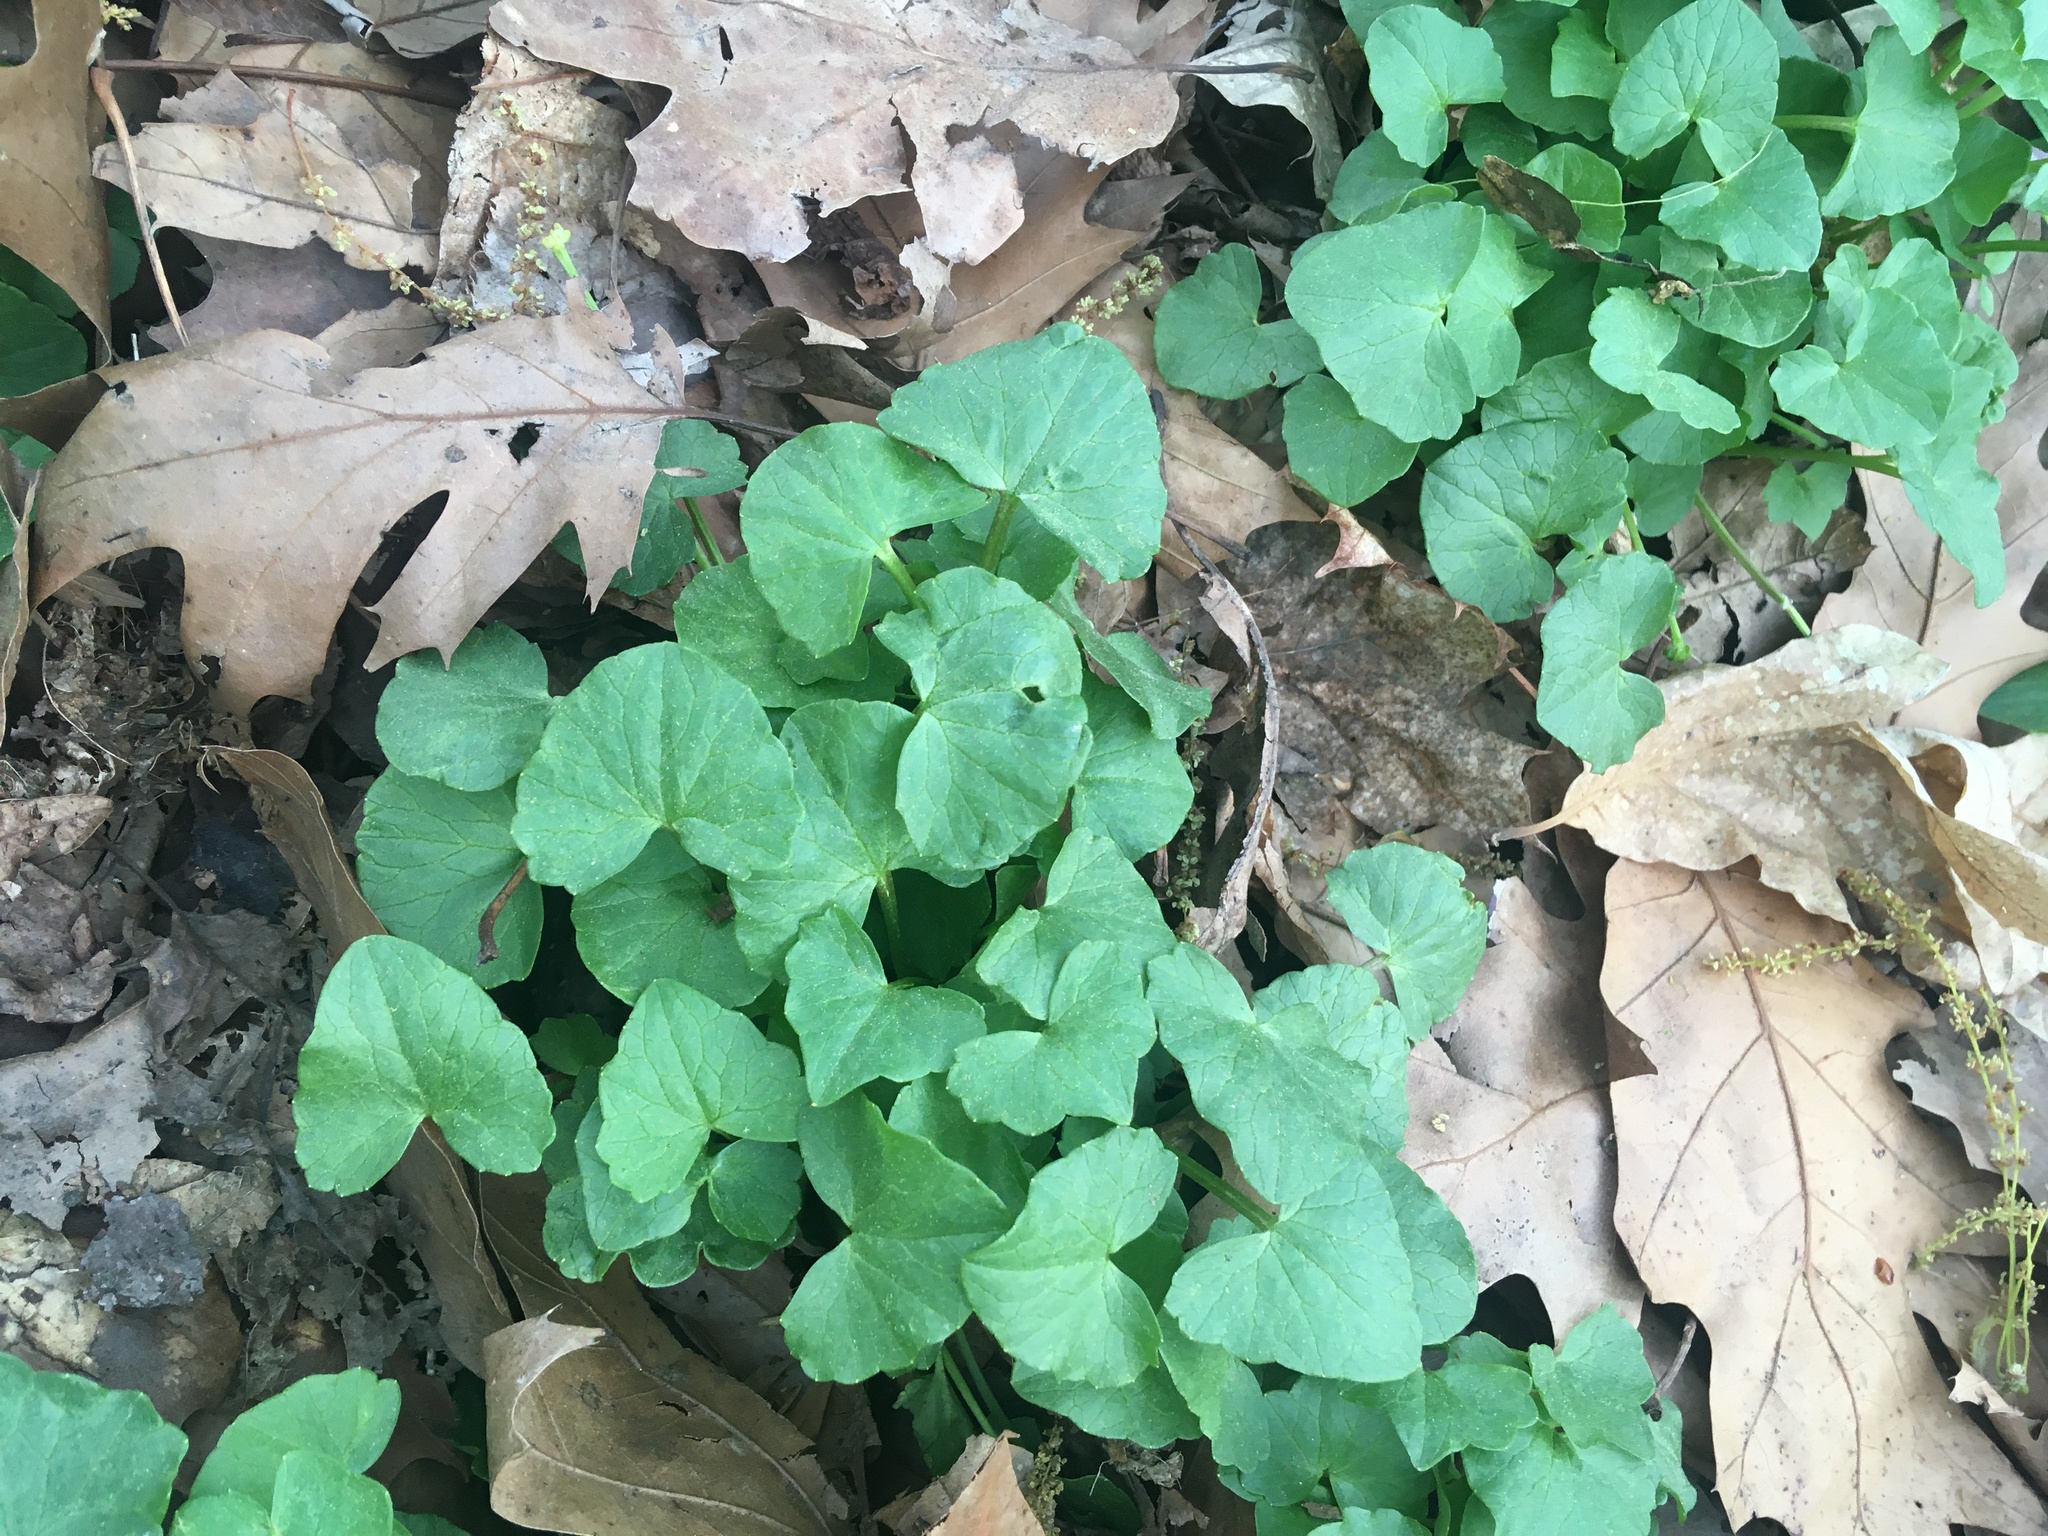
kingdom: Plantae
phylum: Tracheophyta
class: Magnoliopsida
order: Ranunculales
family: Ranunculaceae
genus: Ficaria
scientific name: Ficaria verna
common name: Lesser celandine
